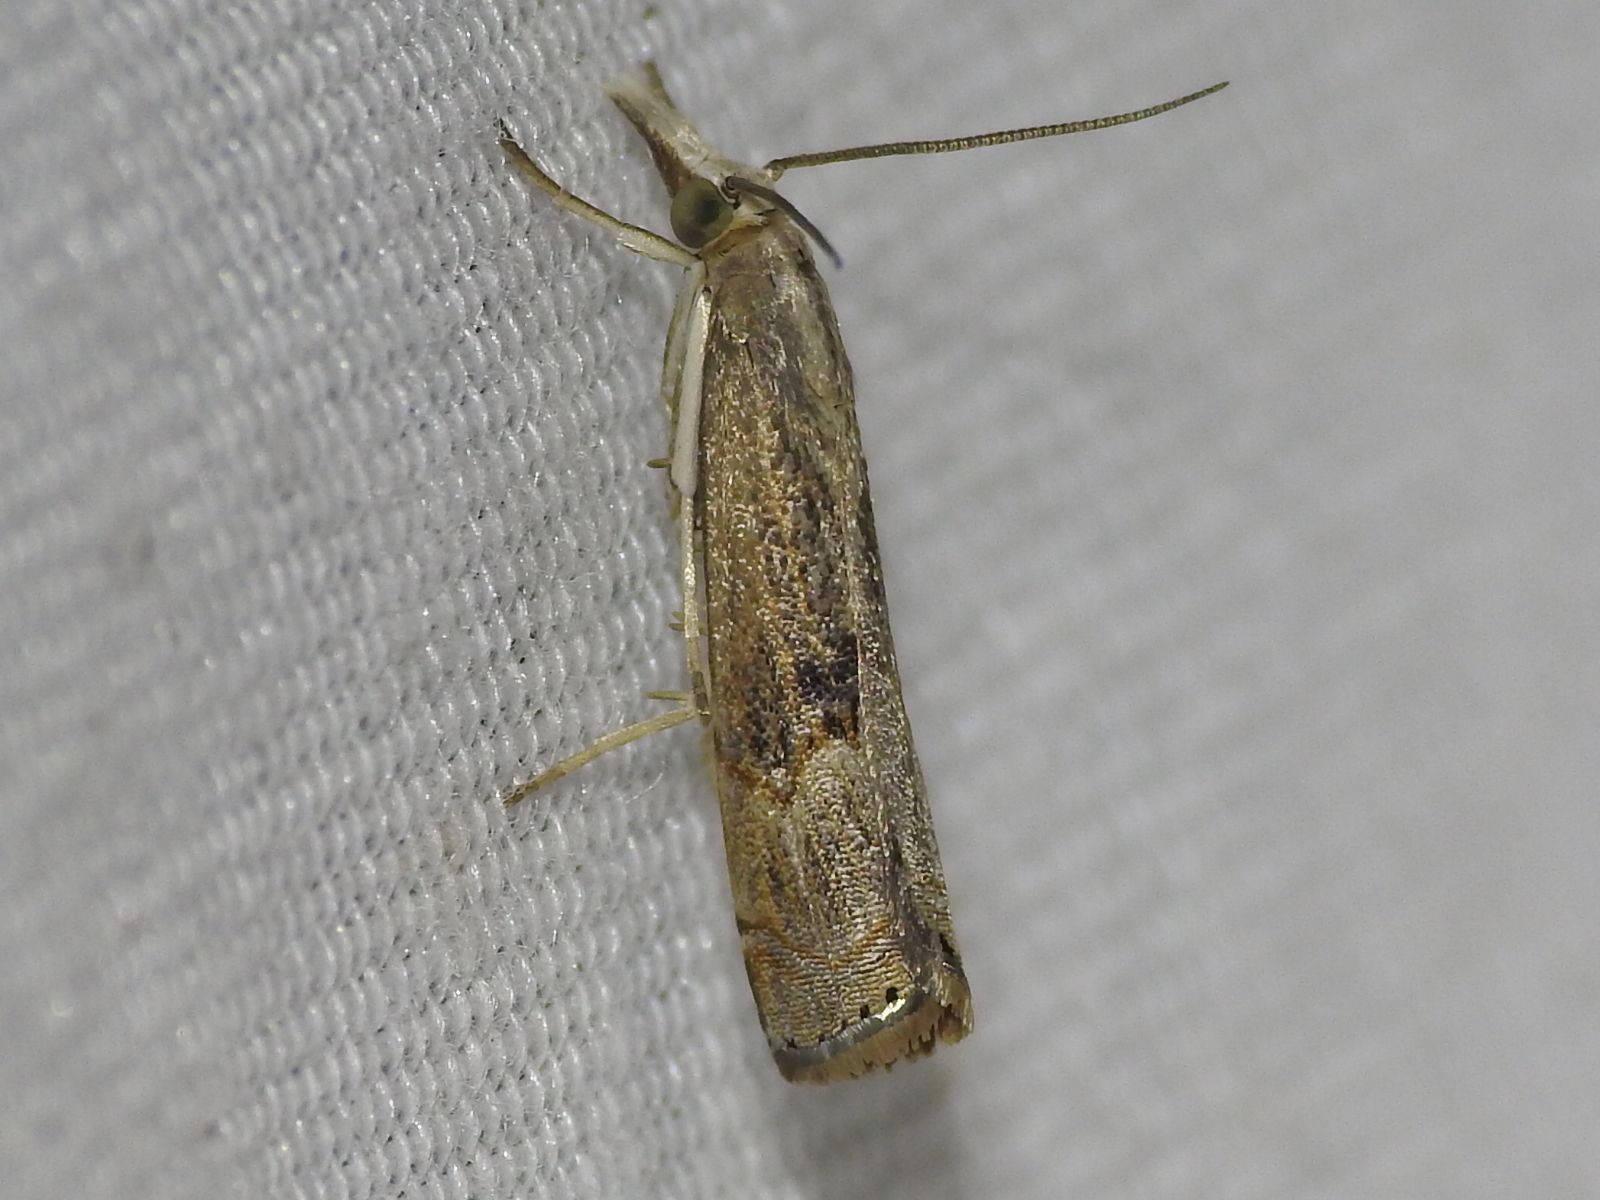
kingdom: Animalia
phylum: Arthropoda
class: Insecta
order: Lepidoptera
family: Crambidae
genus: Parapediasia
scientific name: Parapediasia teterellus
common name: Bluegrass webworm moth
